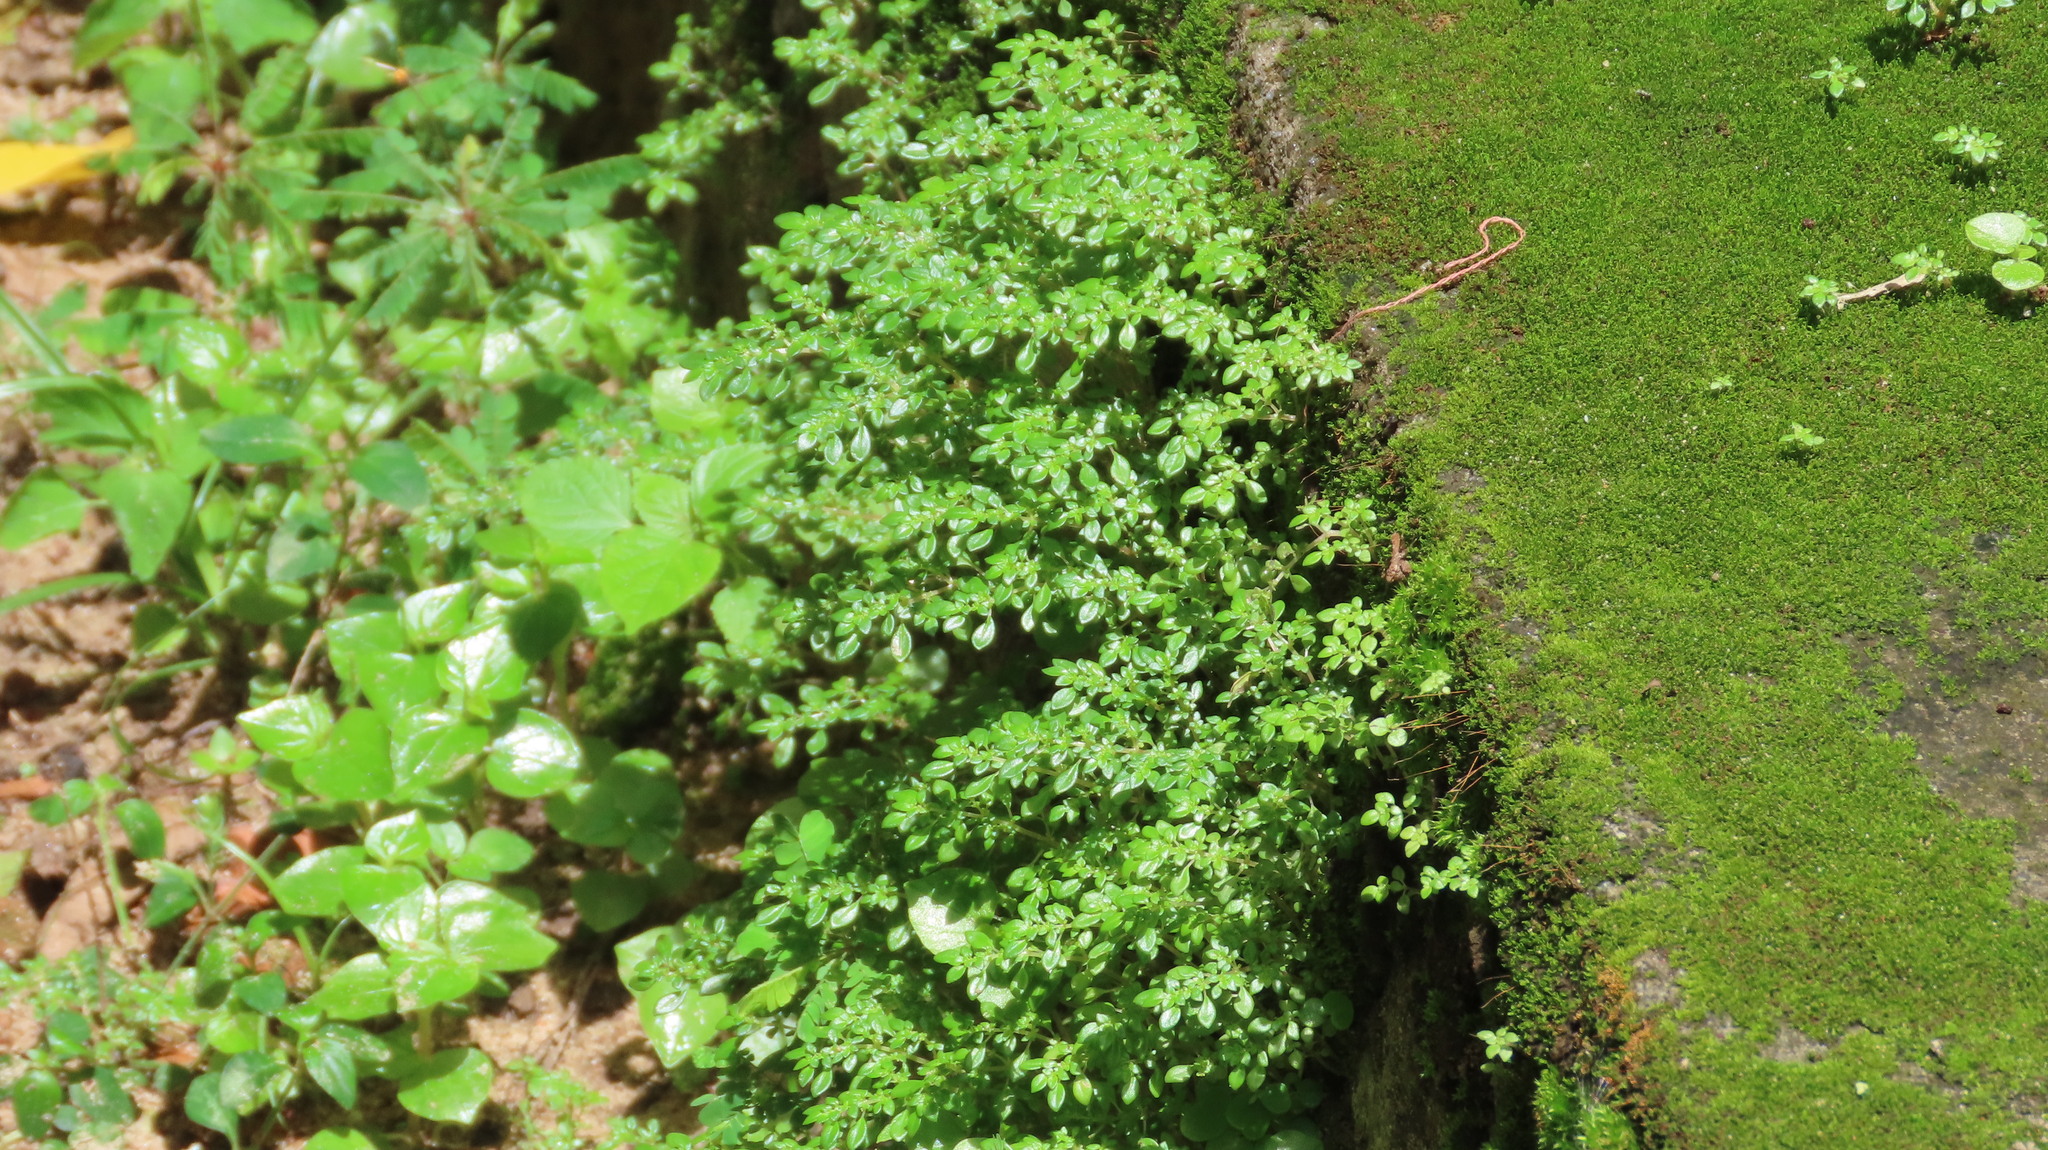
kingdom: Plantae
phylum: Tracheophyta
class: Magnoliopsida
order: Rosales
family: Urticaceae
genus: Pilea
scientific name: Pilea microphylla
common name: Artillery-plant
